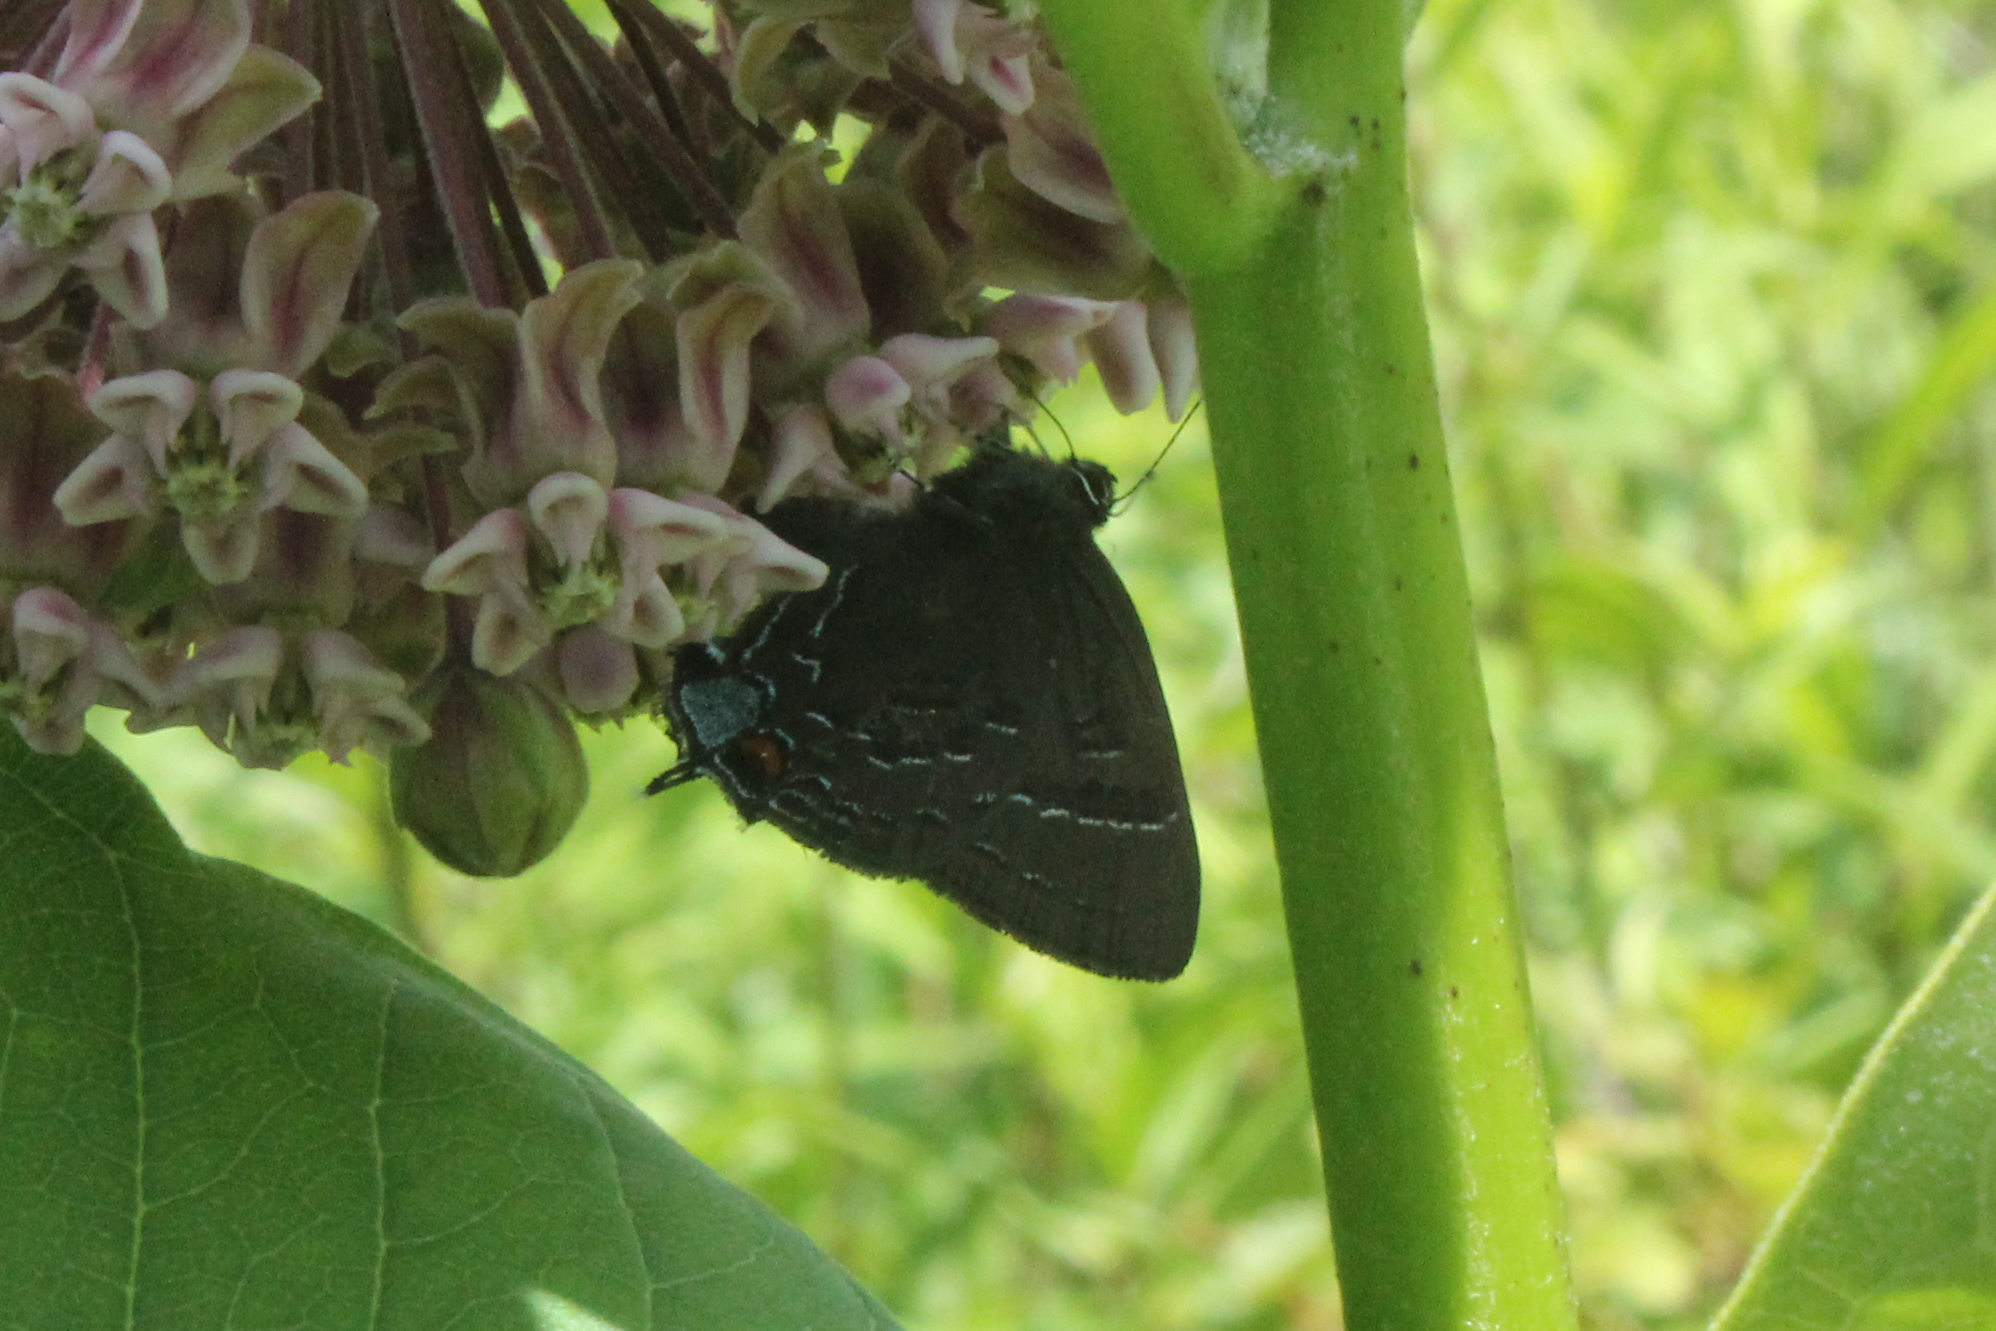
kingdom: Animalia
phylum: Arthropoda
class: Insecta
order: Lepidoptera
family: Lycaenidae
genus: Satyrium
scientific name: Satyrium calanus
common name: Banded hairstreak
